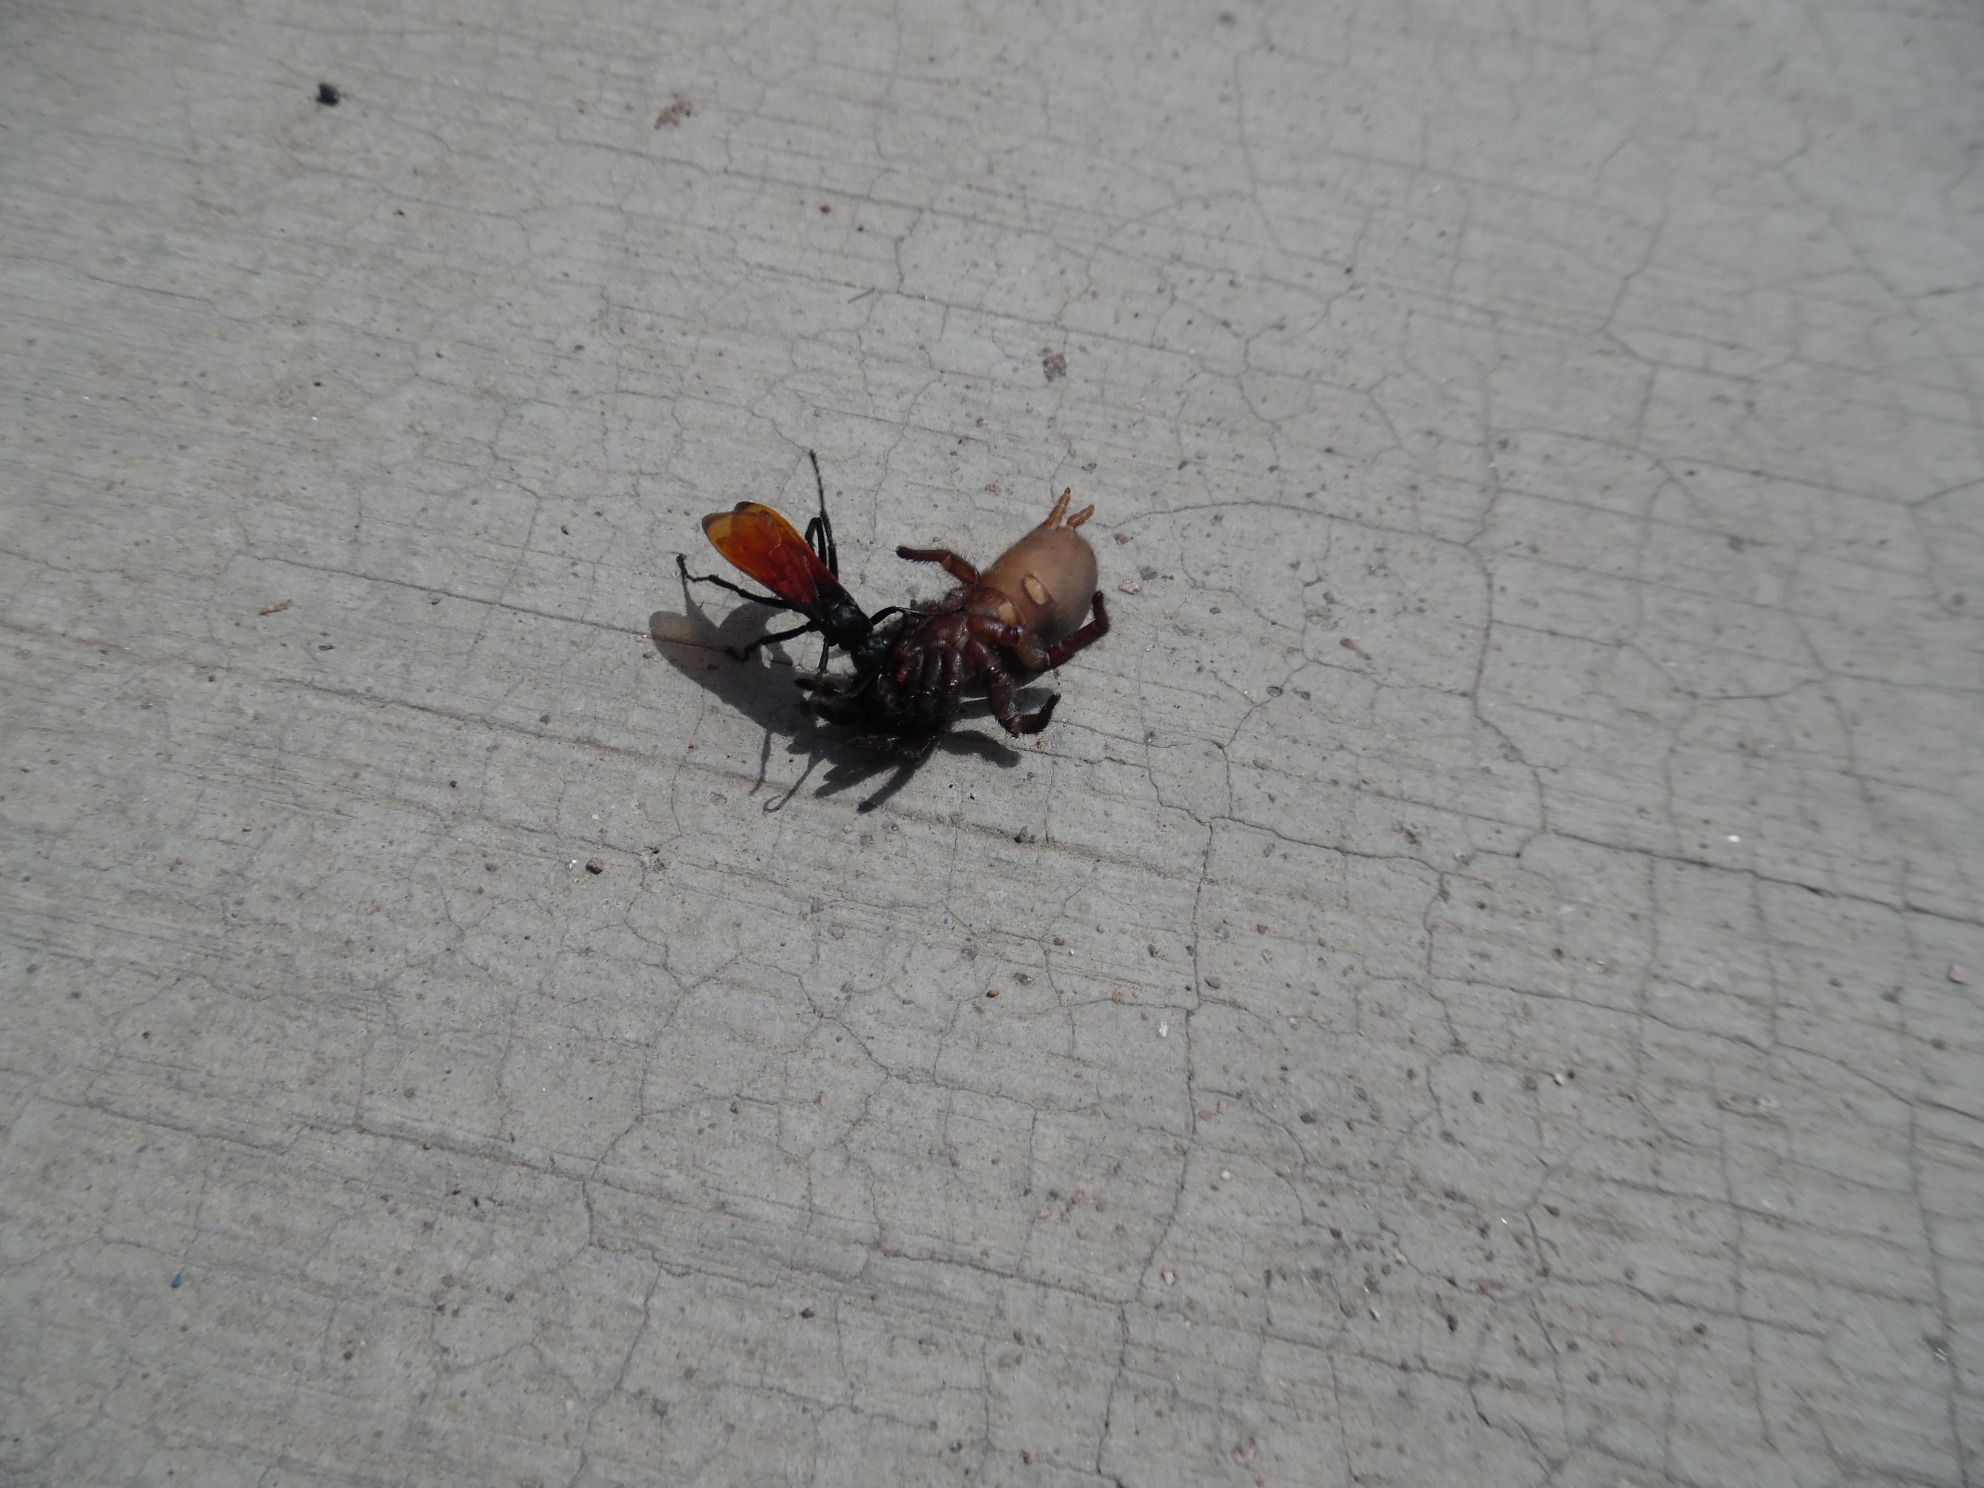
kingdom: Animalia
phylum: Arthropoda
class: Insecta
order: Hymenoptera
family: Pompilidae
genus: Pepsis
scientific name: Pepsis thisbe
